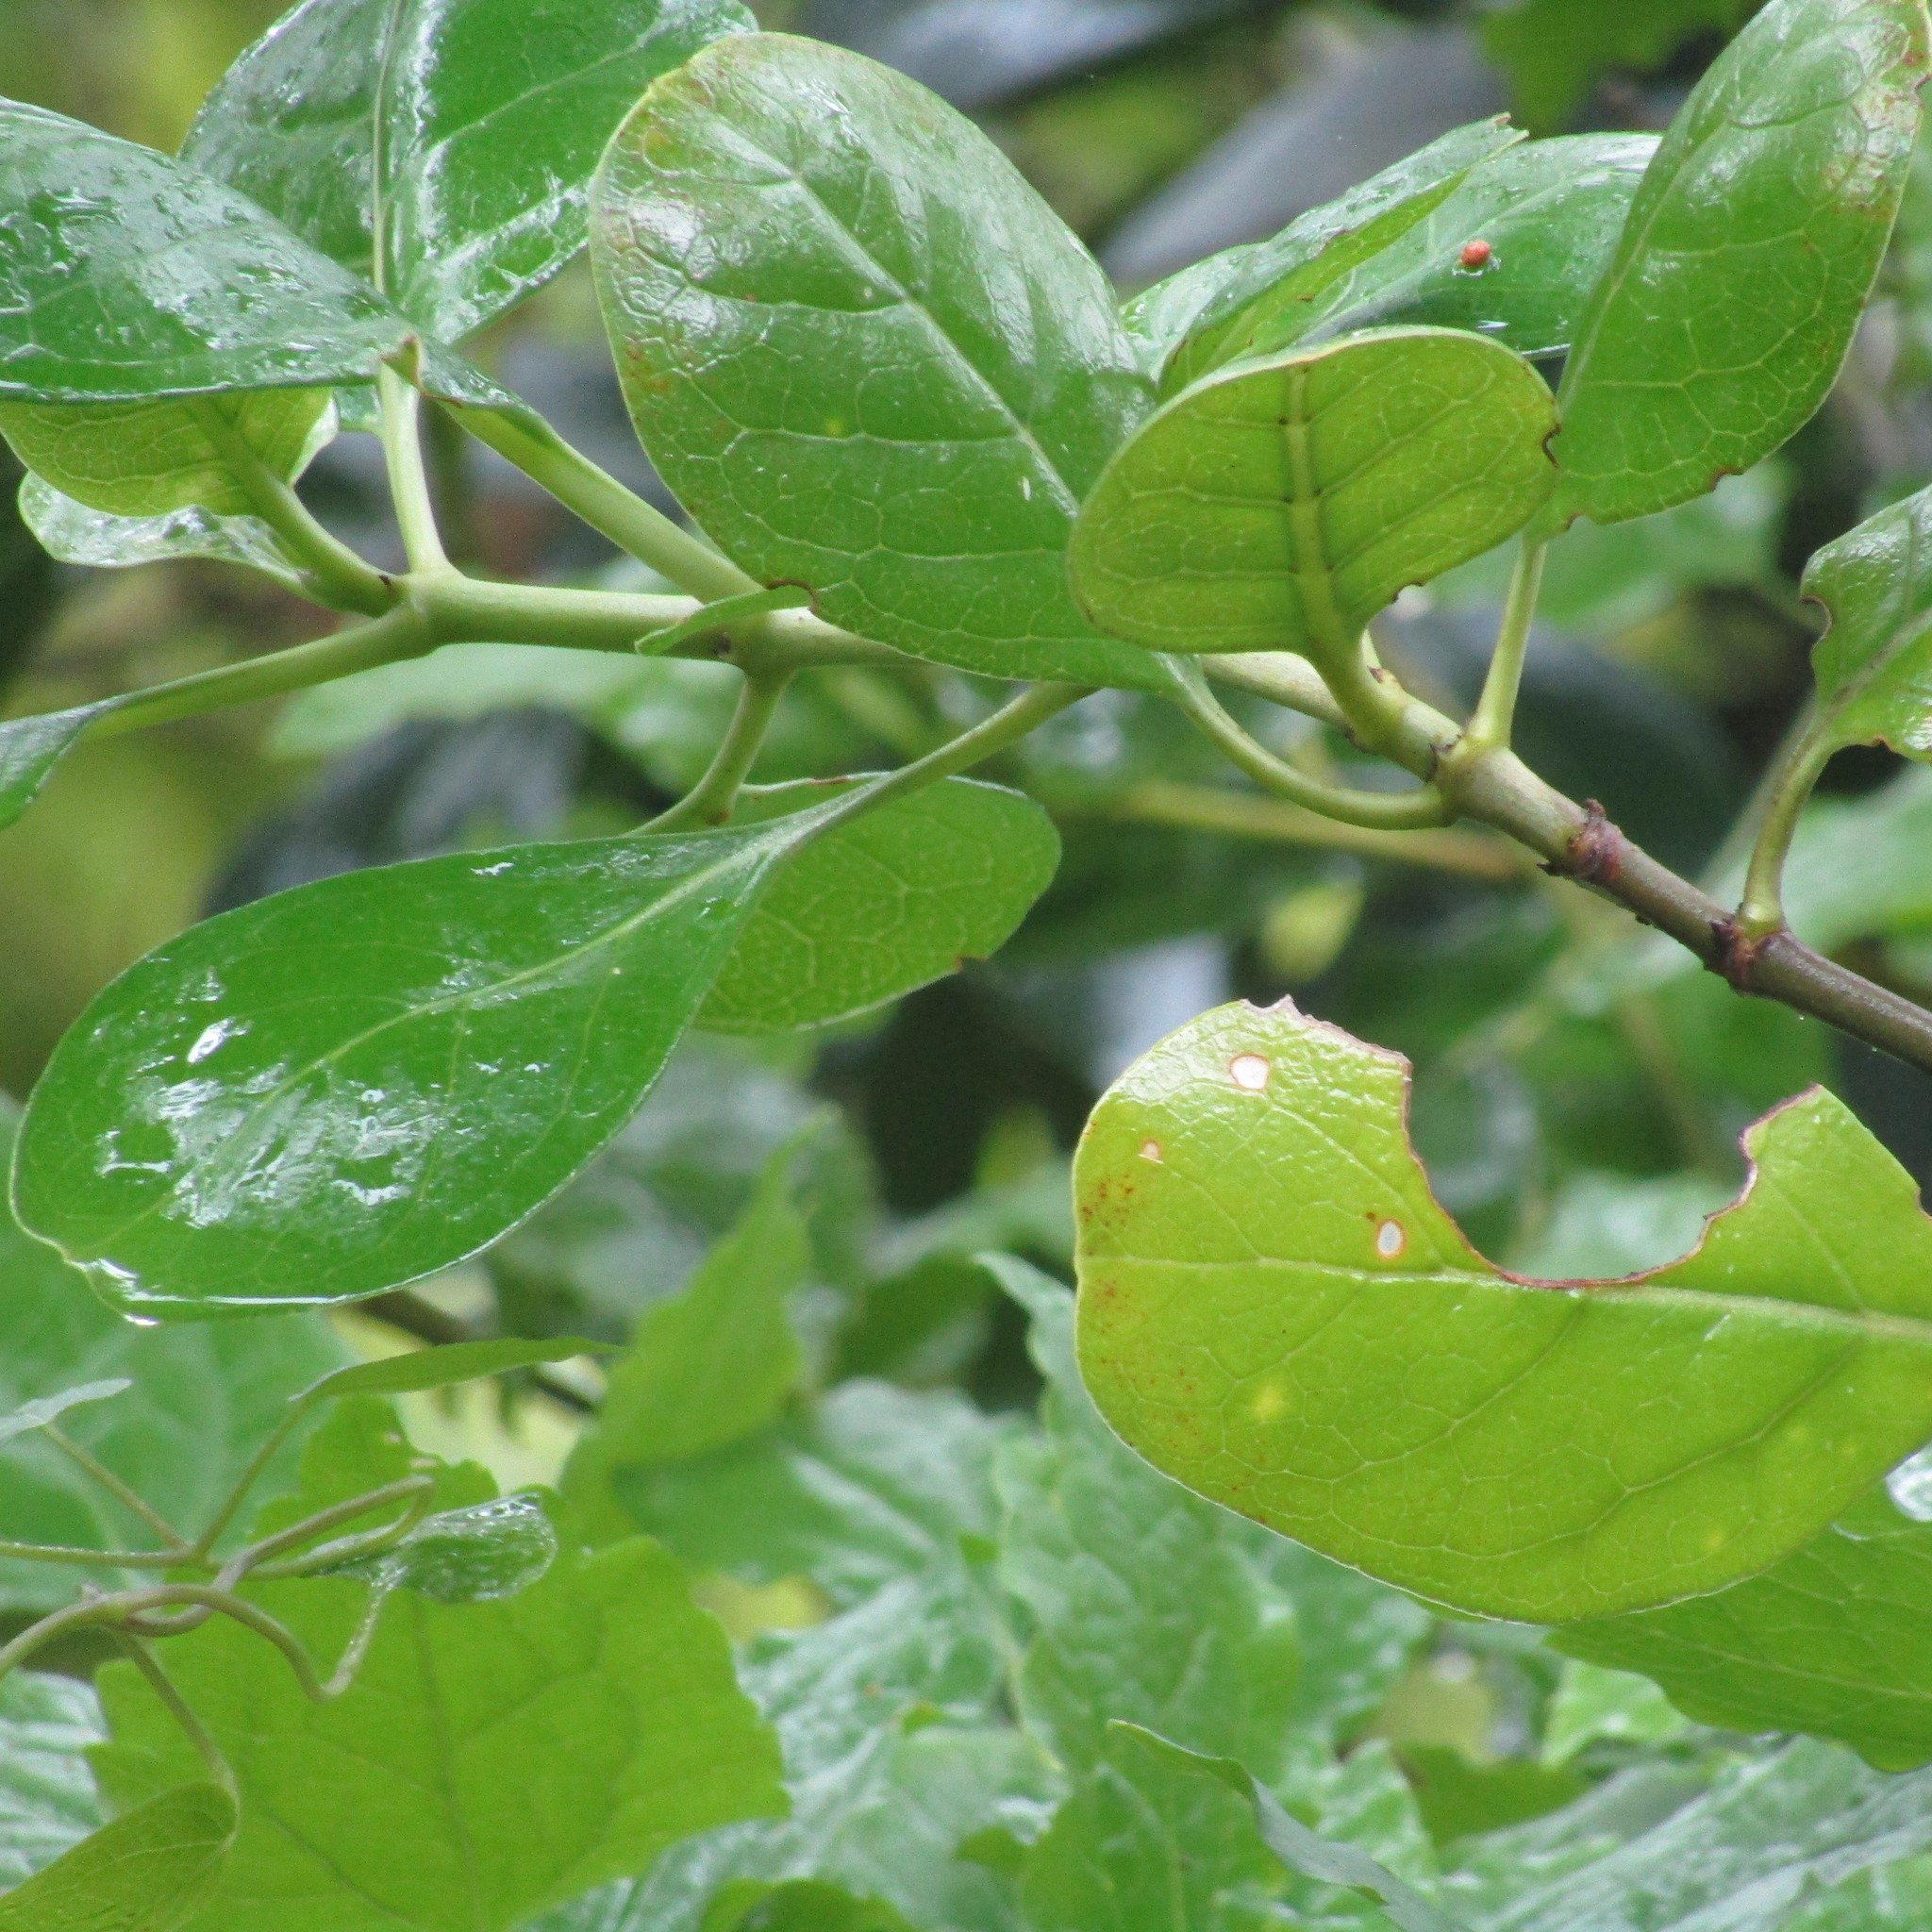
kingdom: Plantae
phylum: Tracheophyta
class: Magnoliopsida
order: Ranunculales
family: Ranunculaceae
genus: Clematis
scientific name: Clematis vitalba
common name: Evergreen clematis
